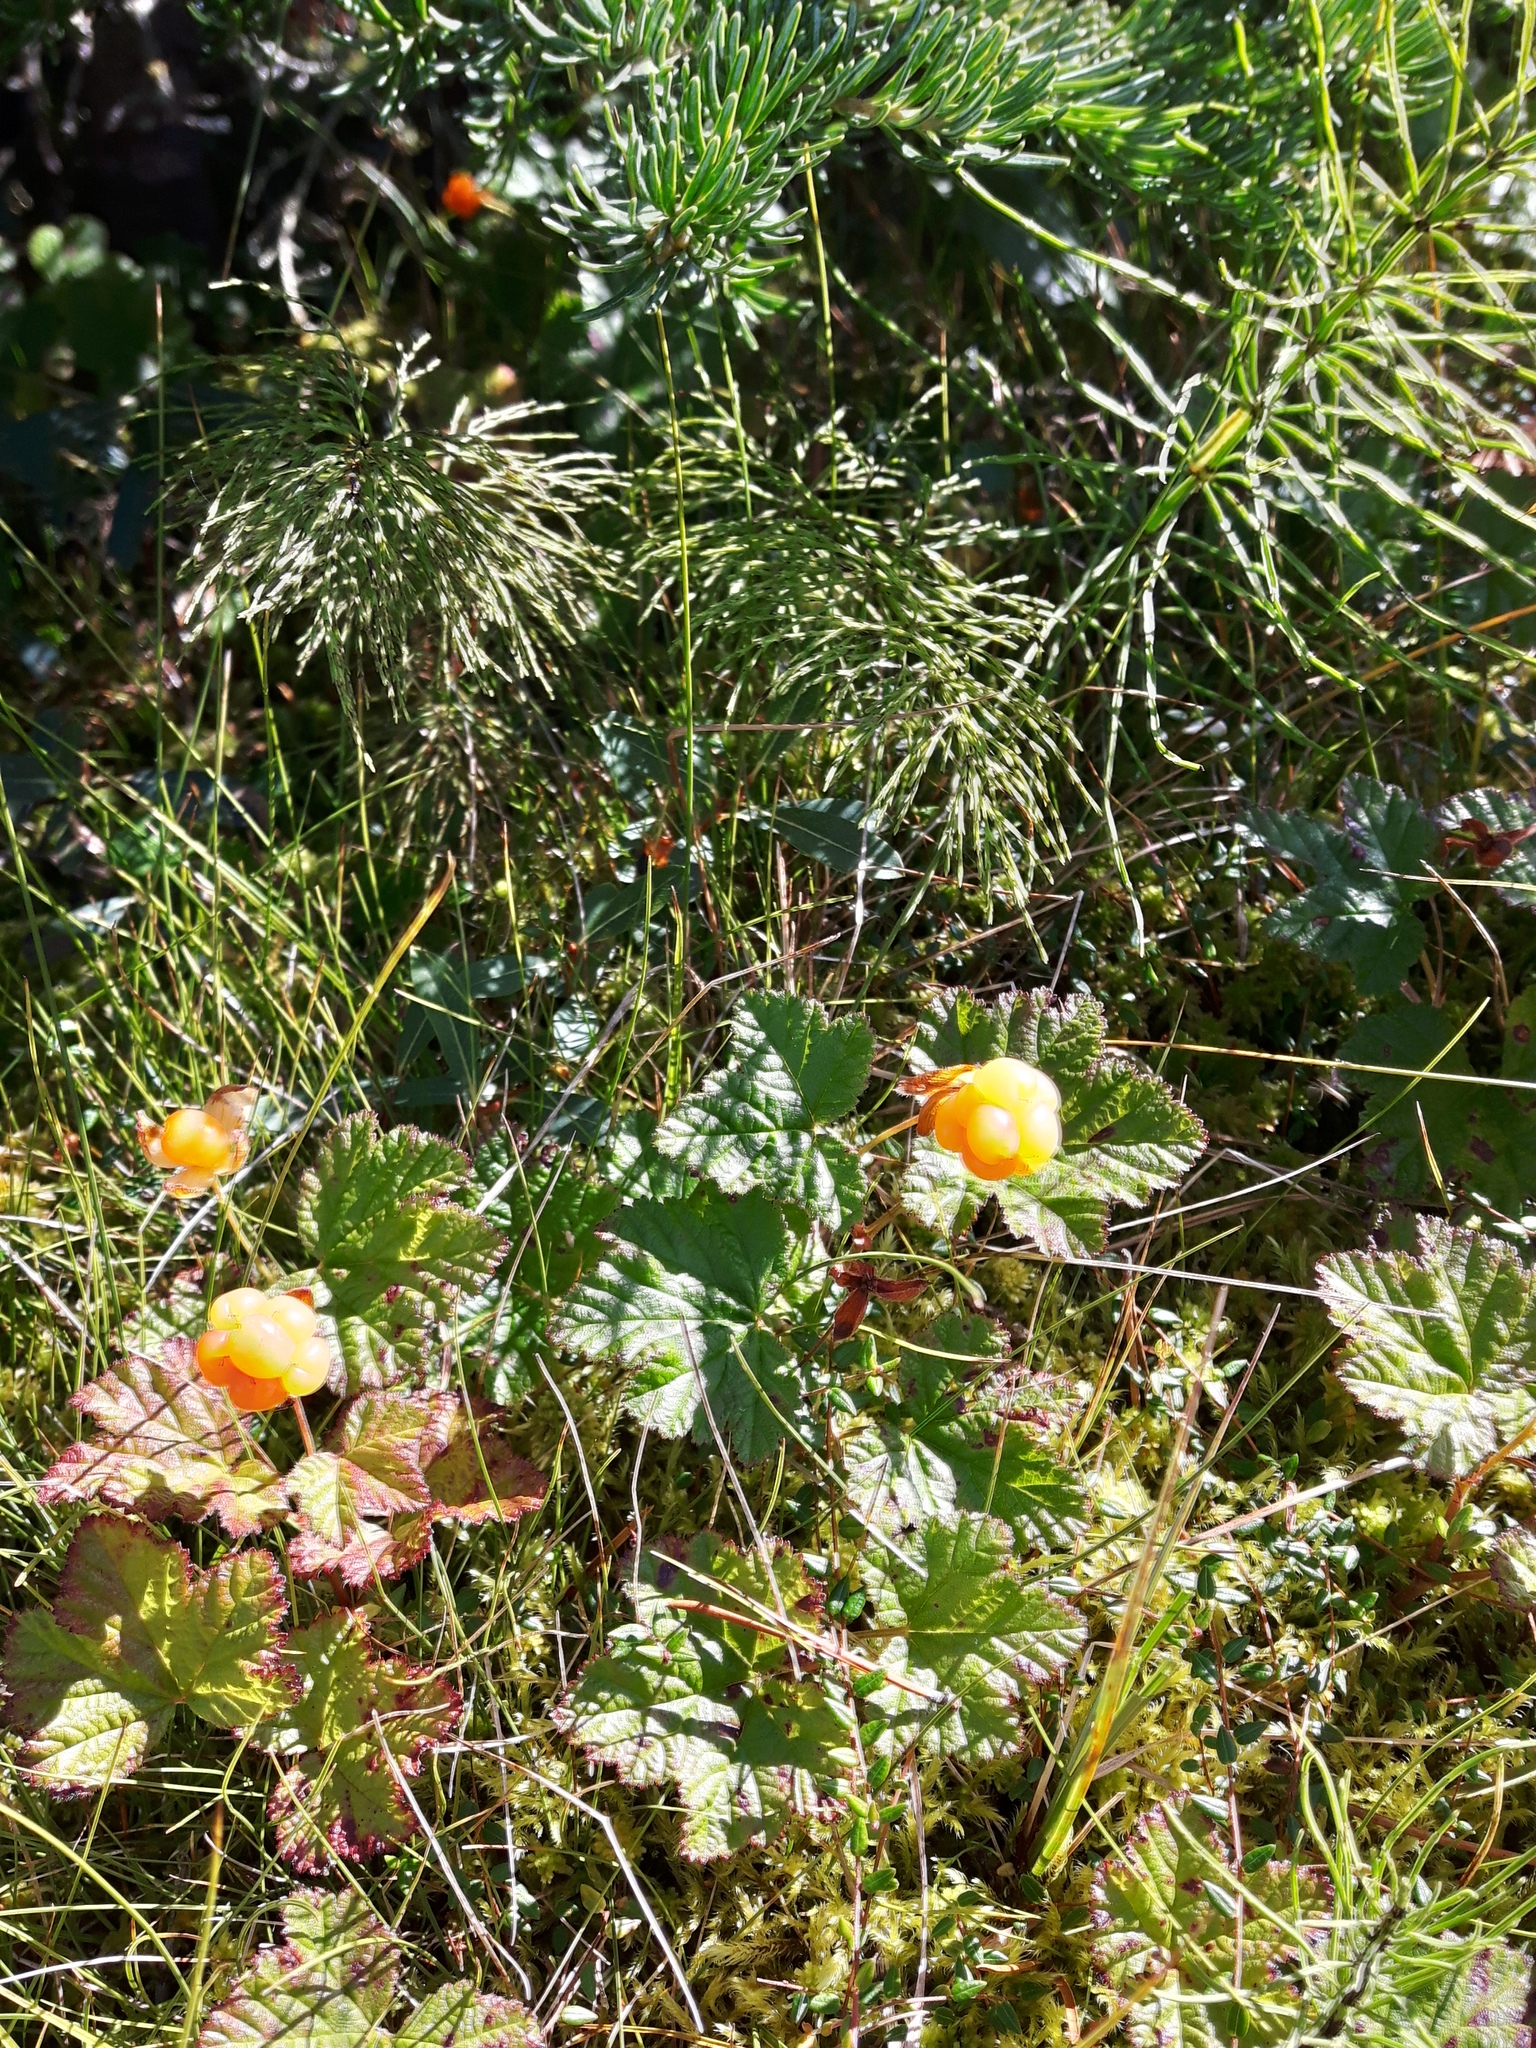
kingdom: Plantae
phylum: Tracheophyta
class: Magnoliopsida
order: Rosales
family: Rosaceae
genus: Rubus
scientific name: Rubus chamaemorus
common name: Cloudberry
